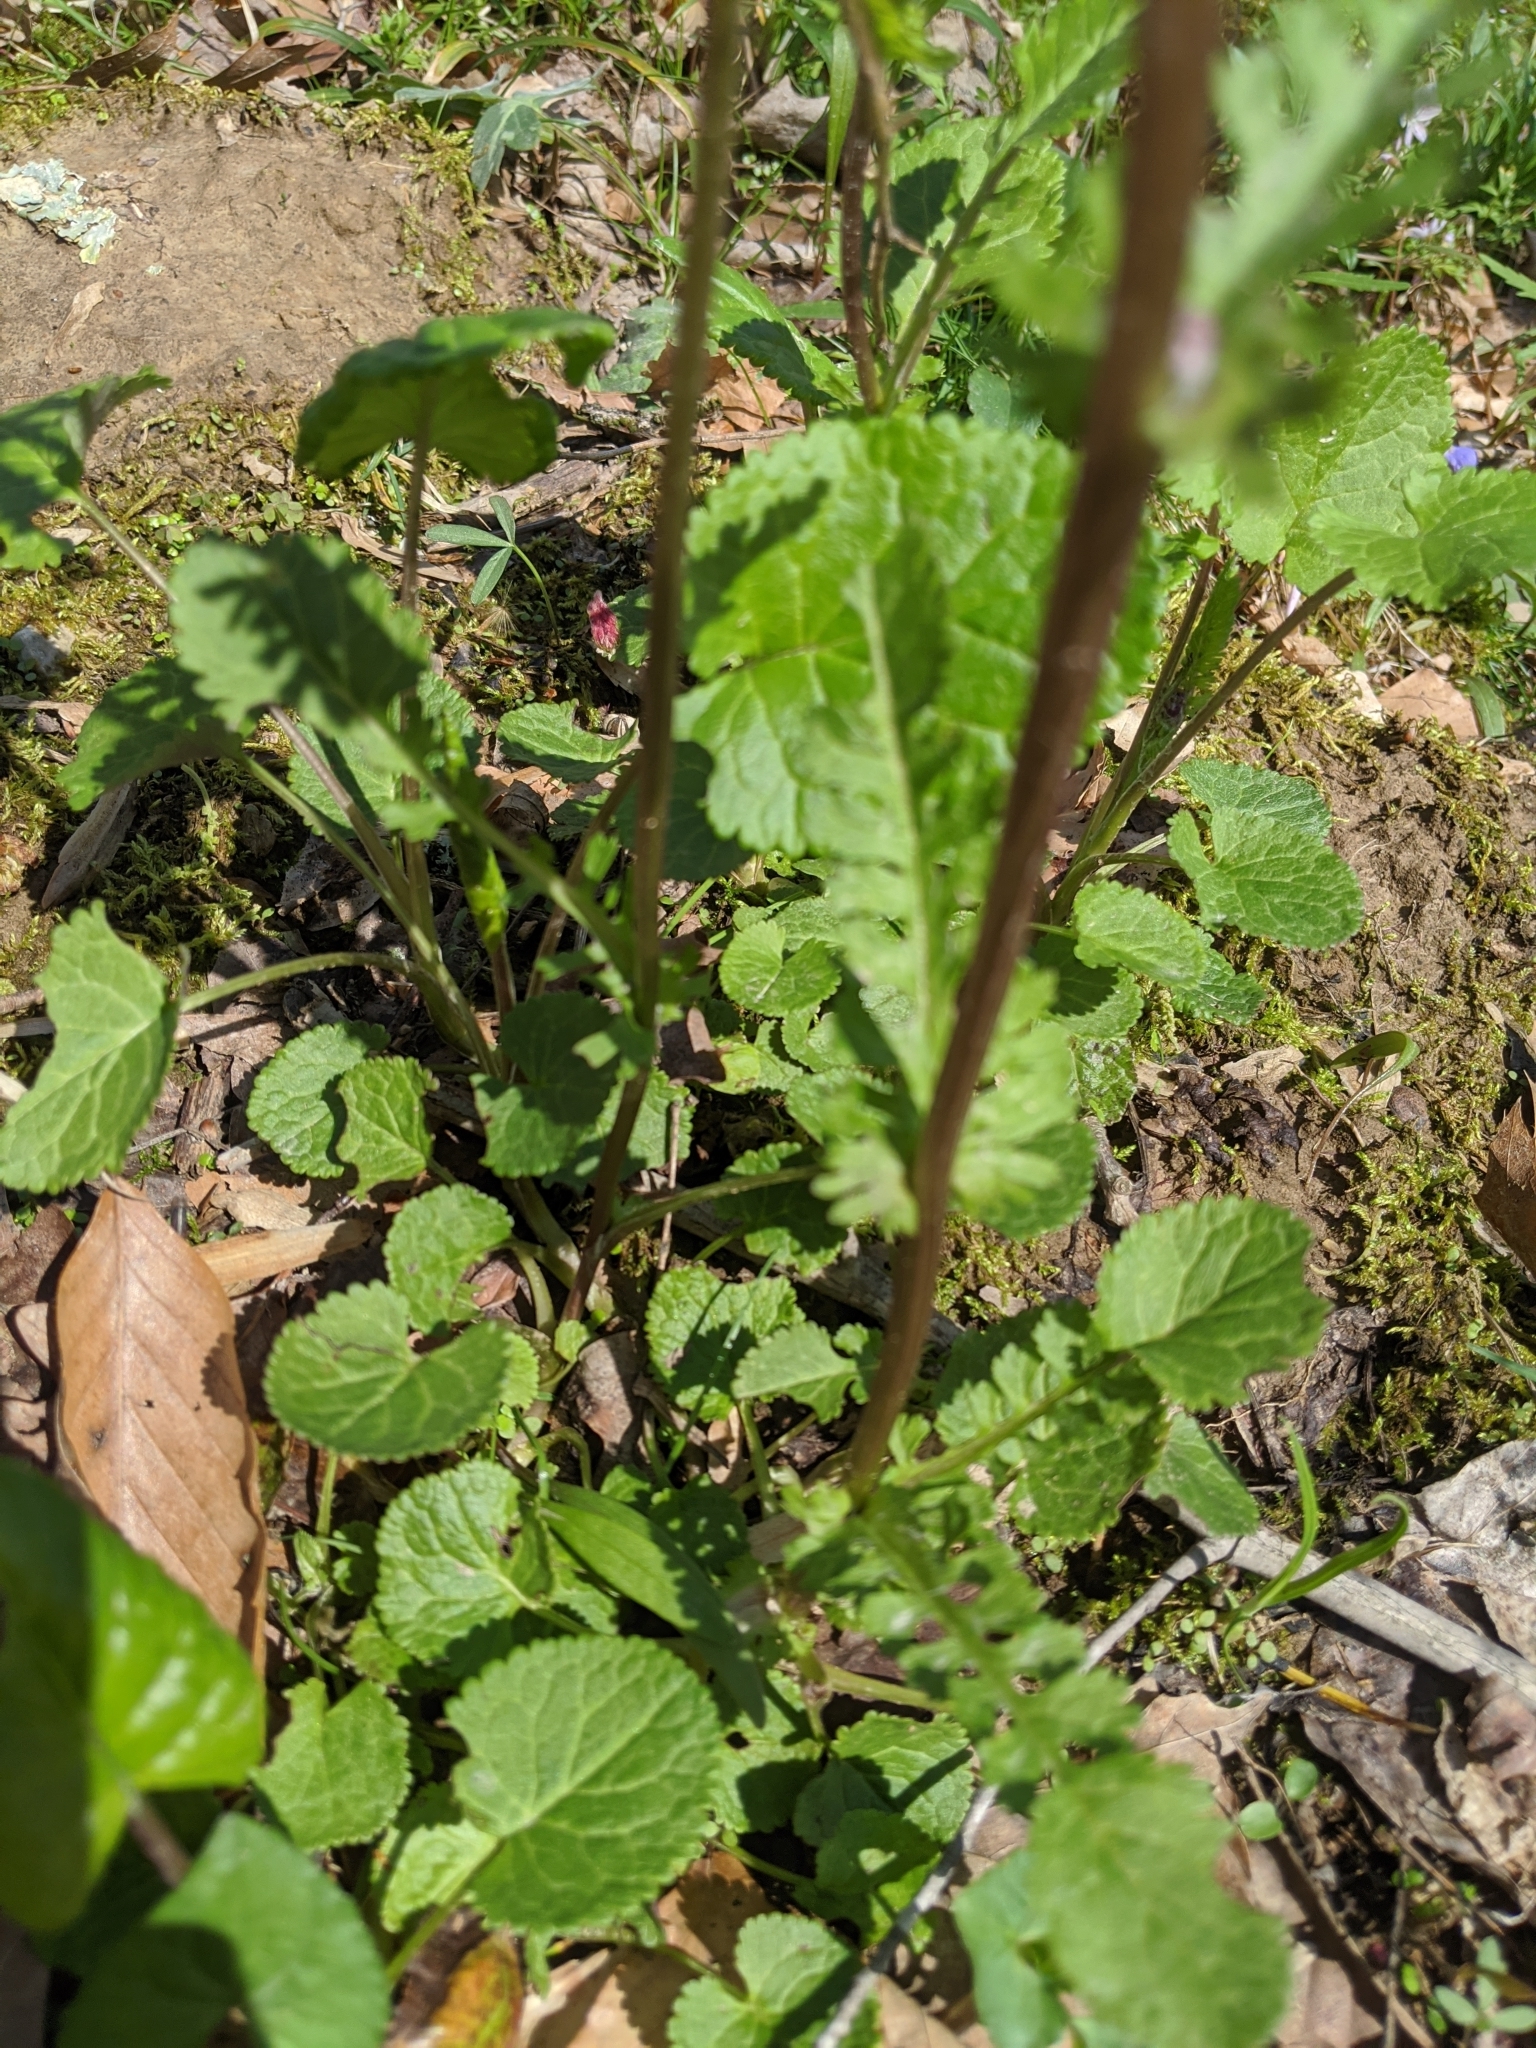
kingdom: Plantae
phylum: Tracheophyta
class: Magnoliopsida
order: Asterales
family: Asteraceae
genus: Packera
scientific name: Packera aurea
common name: Golden groundsel
